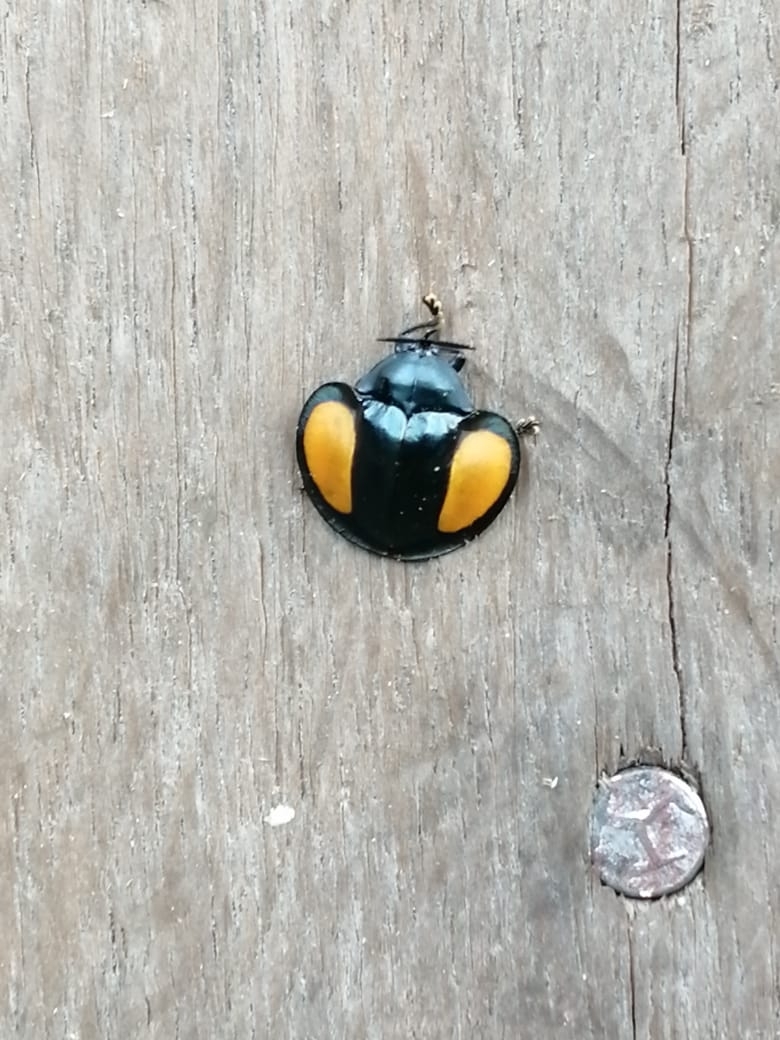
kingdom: Animalia
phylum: Arthropoda
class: Insecta
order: Coleoptera
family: Chrysomelidae
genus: Omaspides
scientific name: Omaspides specularis
